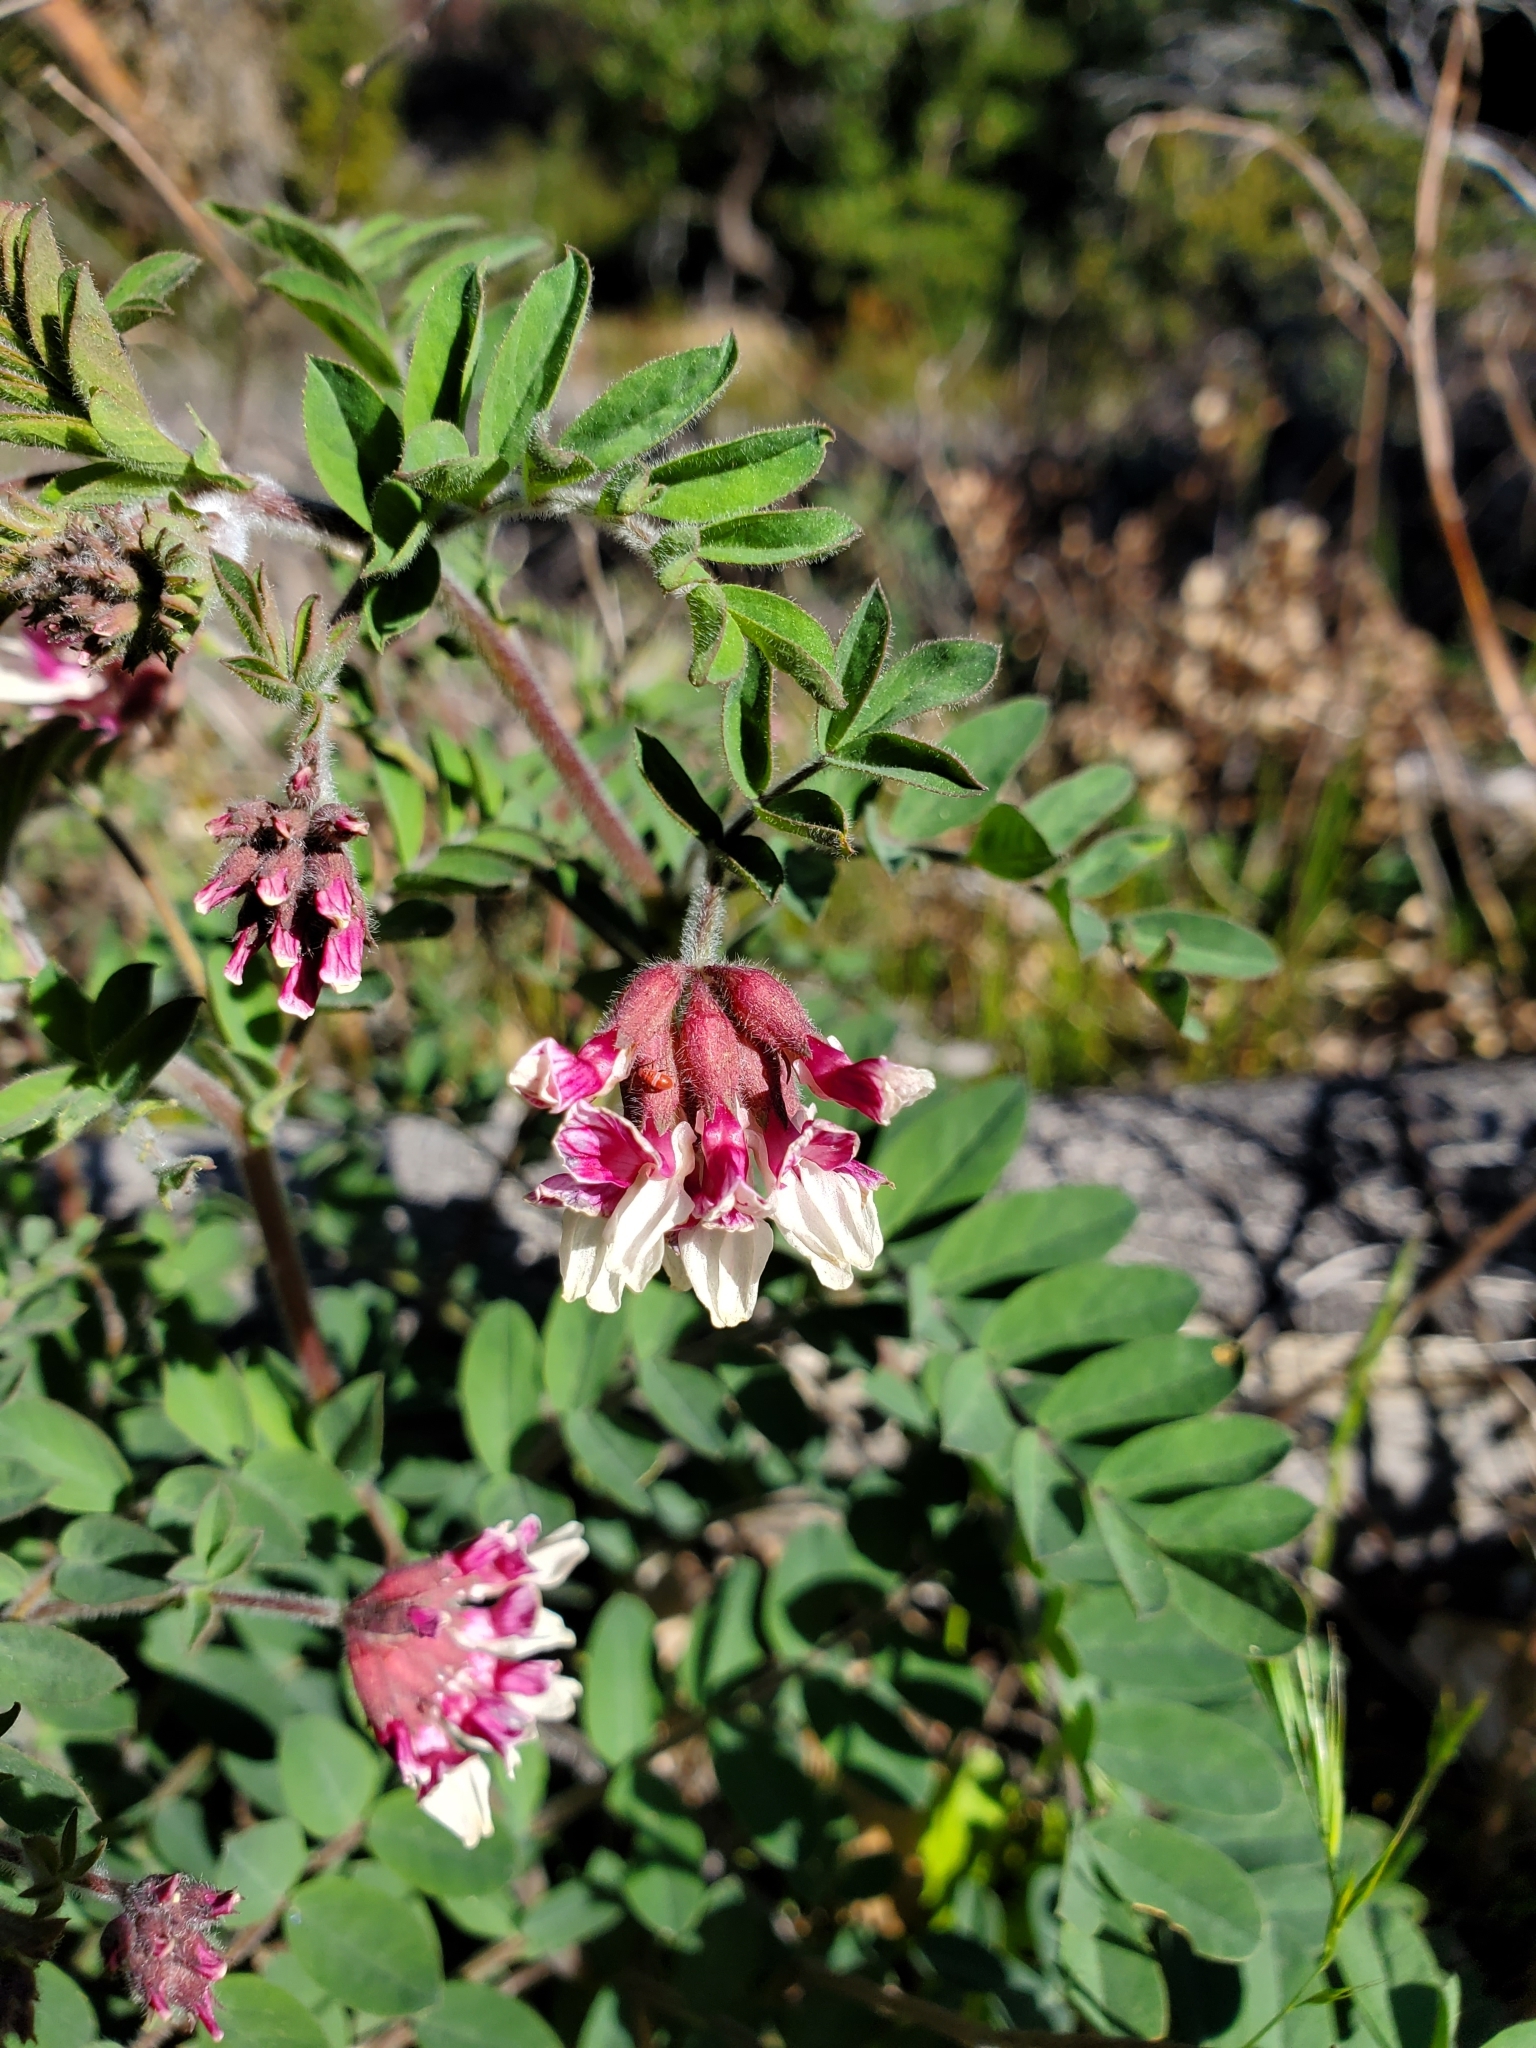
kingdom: Plantae
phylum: Tracheophyta
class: Magnoliopsida
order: Fabales
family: Fabaceae
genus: Hosackia
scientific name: Hosackia stipularis
